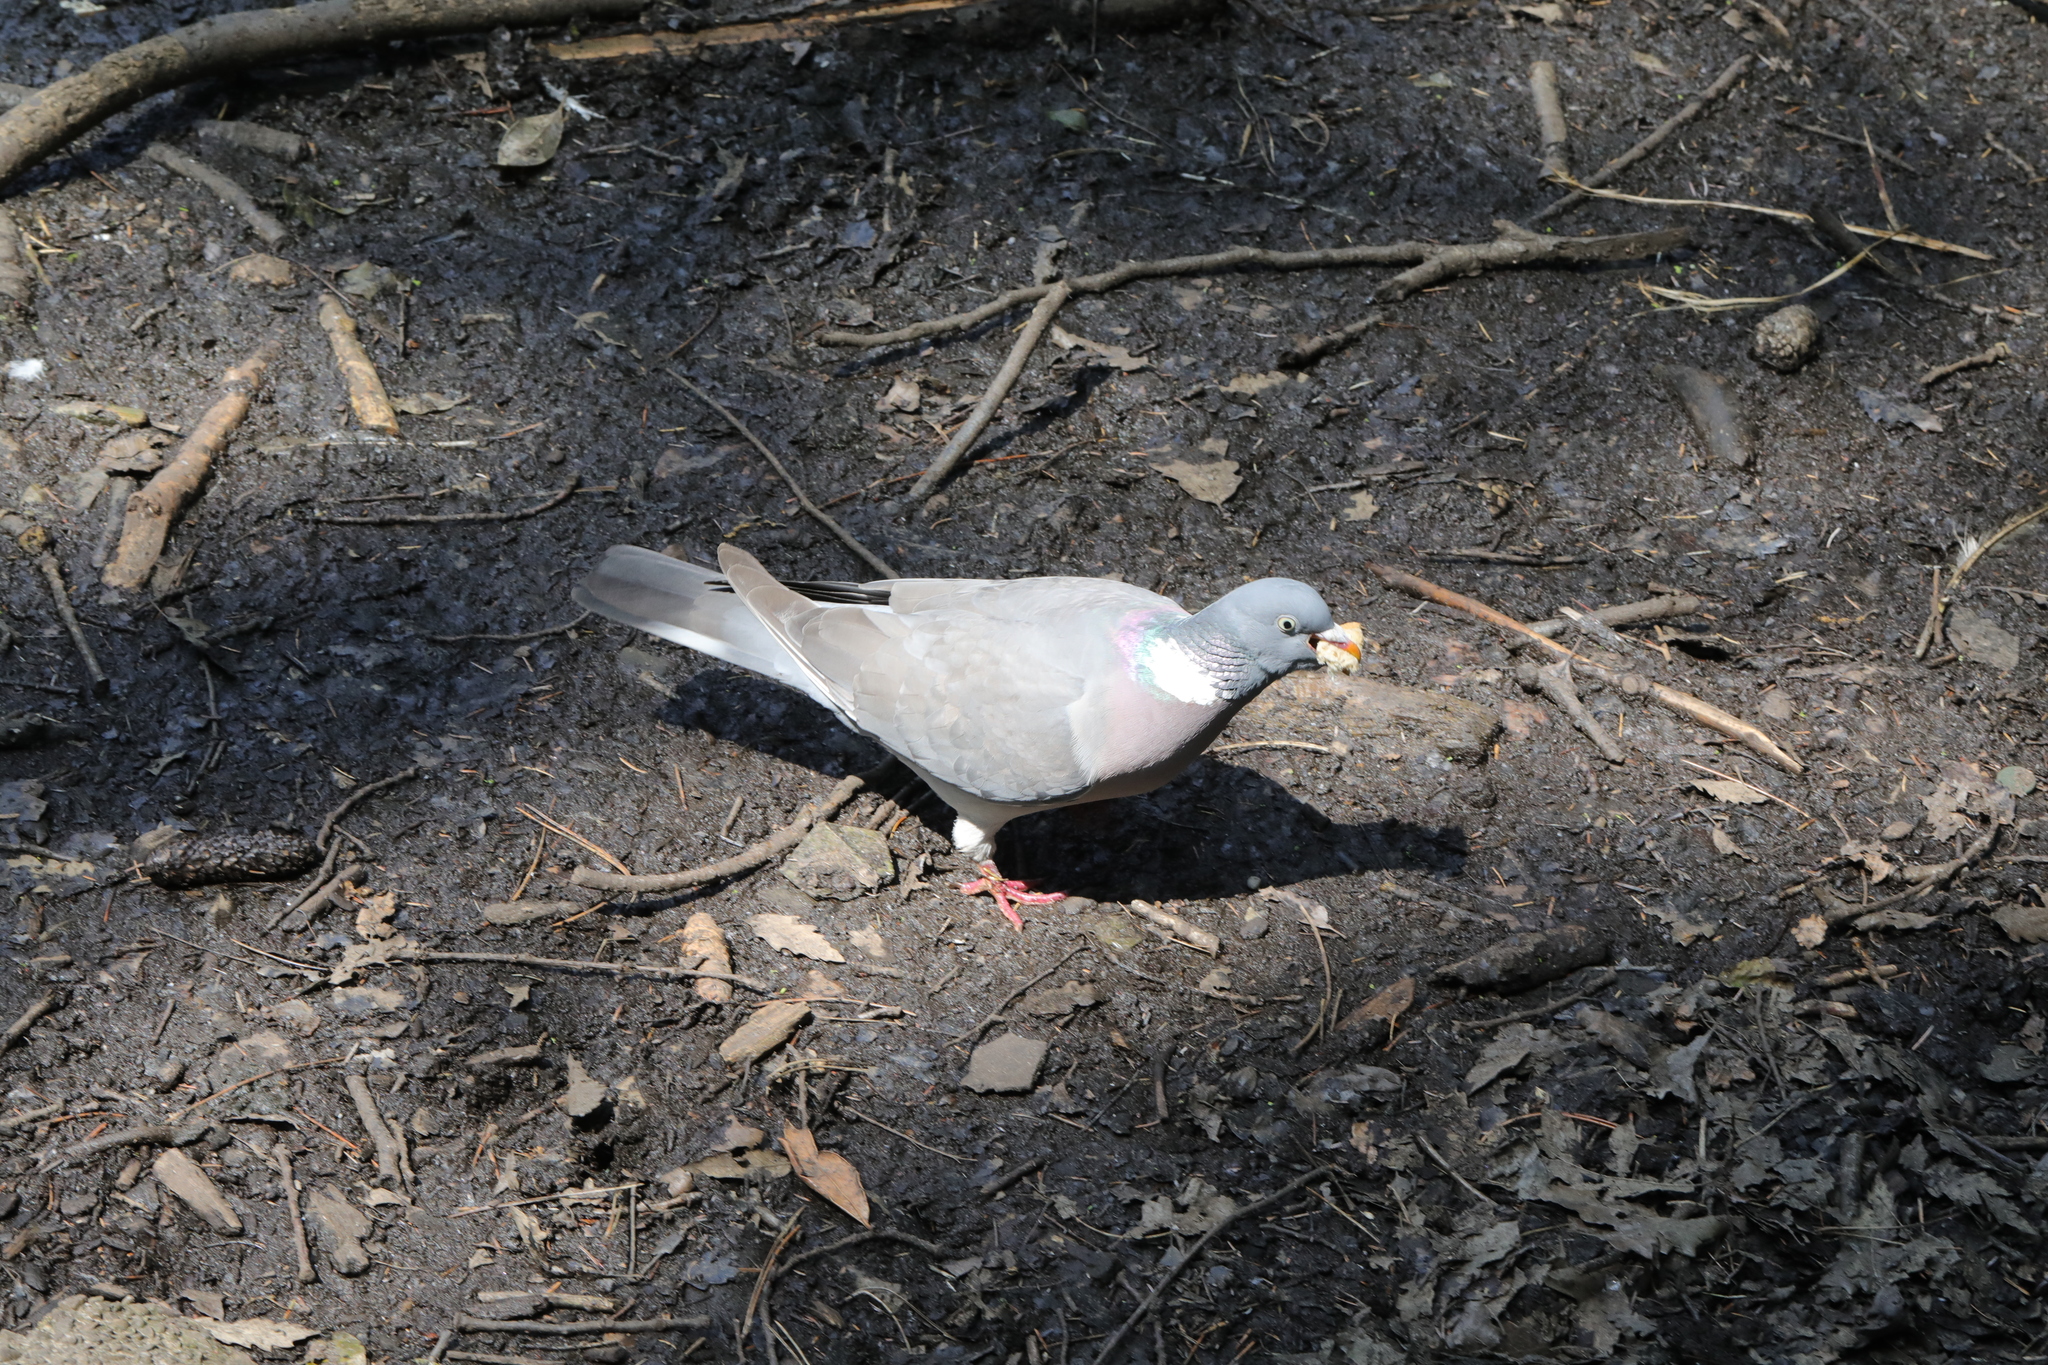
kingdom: Animalia
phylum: Chordata
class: Aves
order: Columbiformes
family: Columbidae
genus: Columba
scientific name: Columba palumbus
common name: Common wood pigeon
